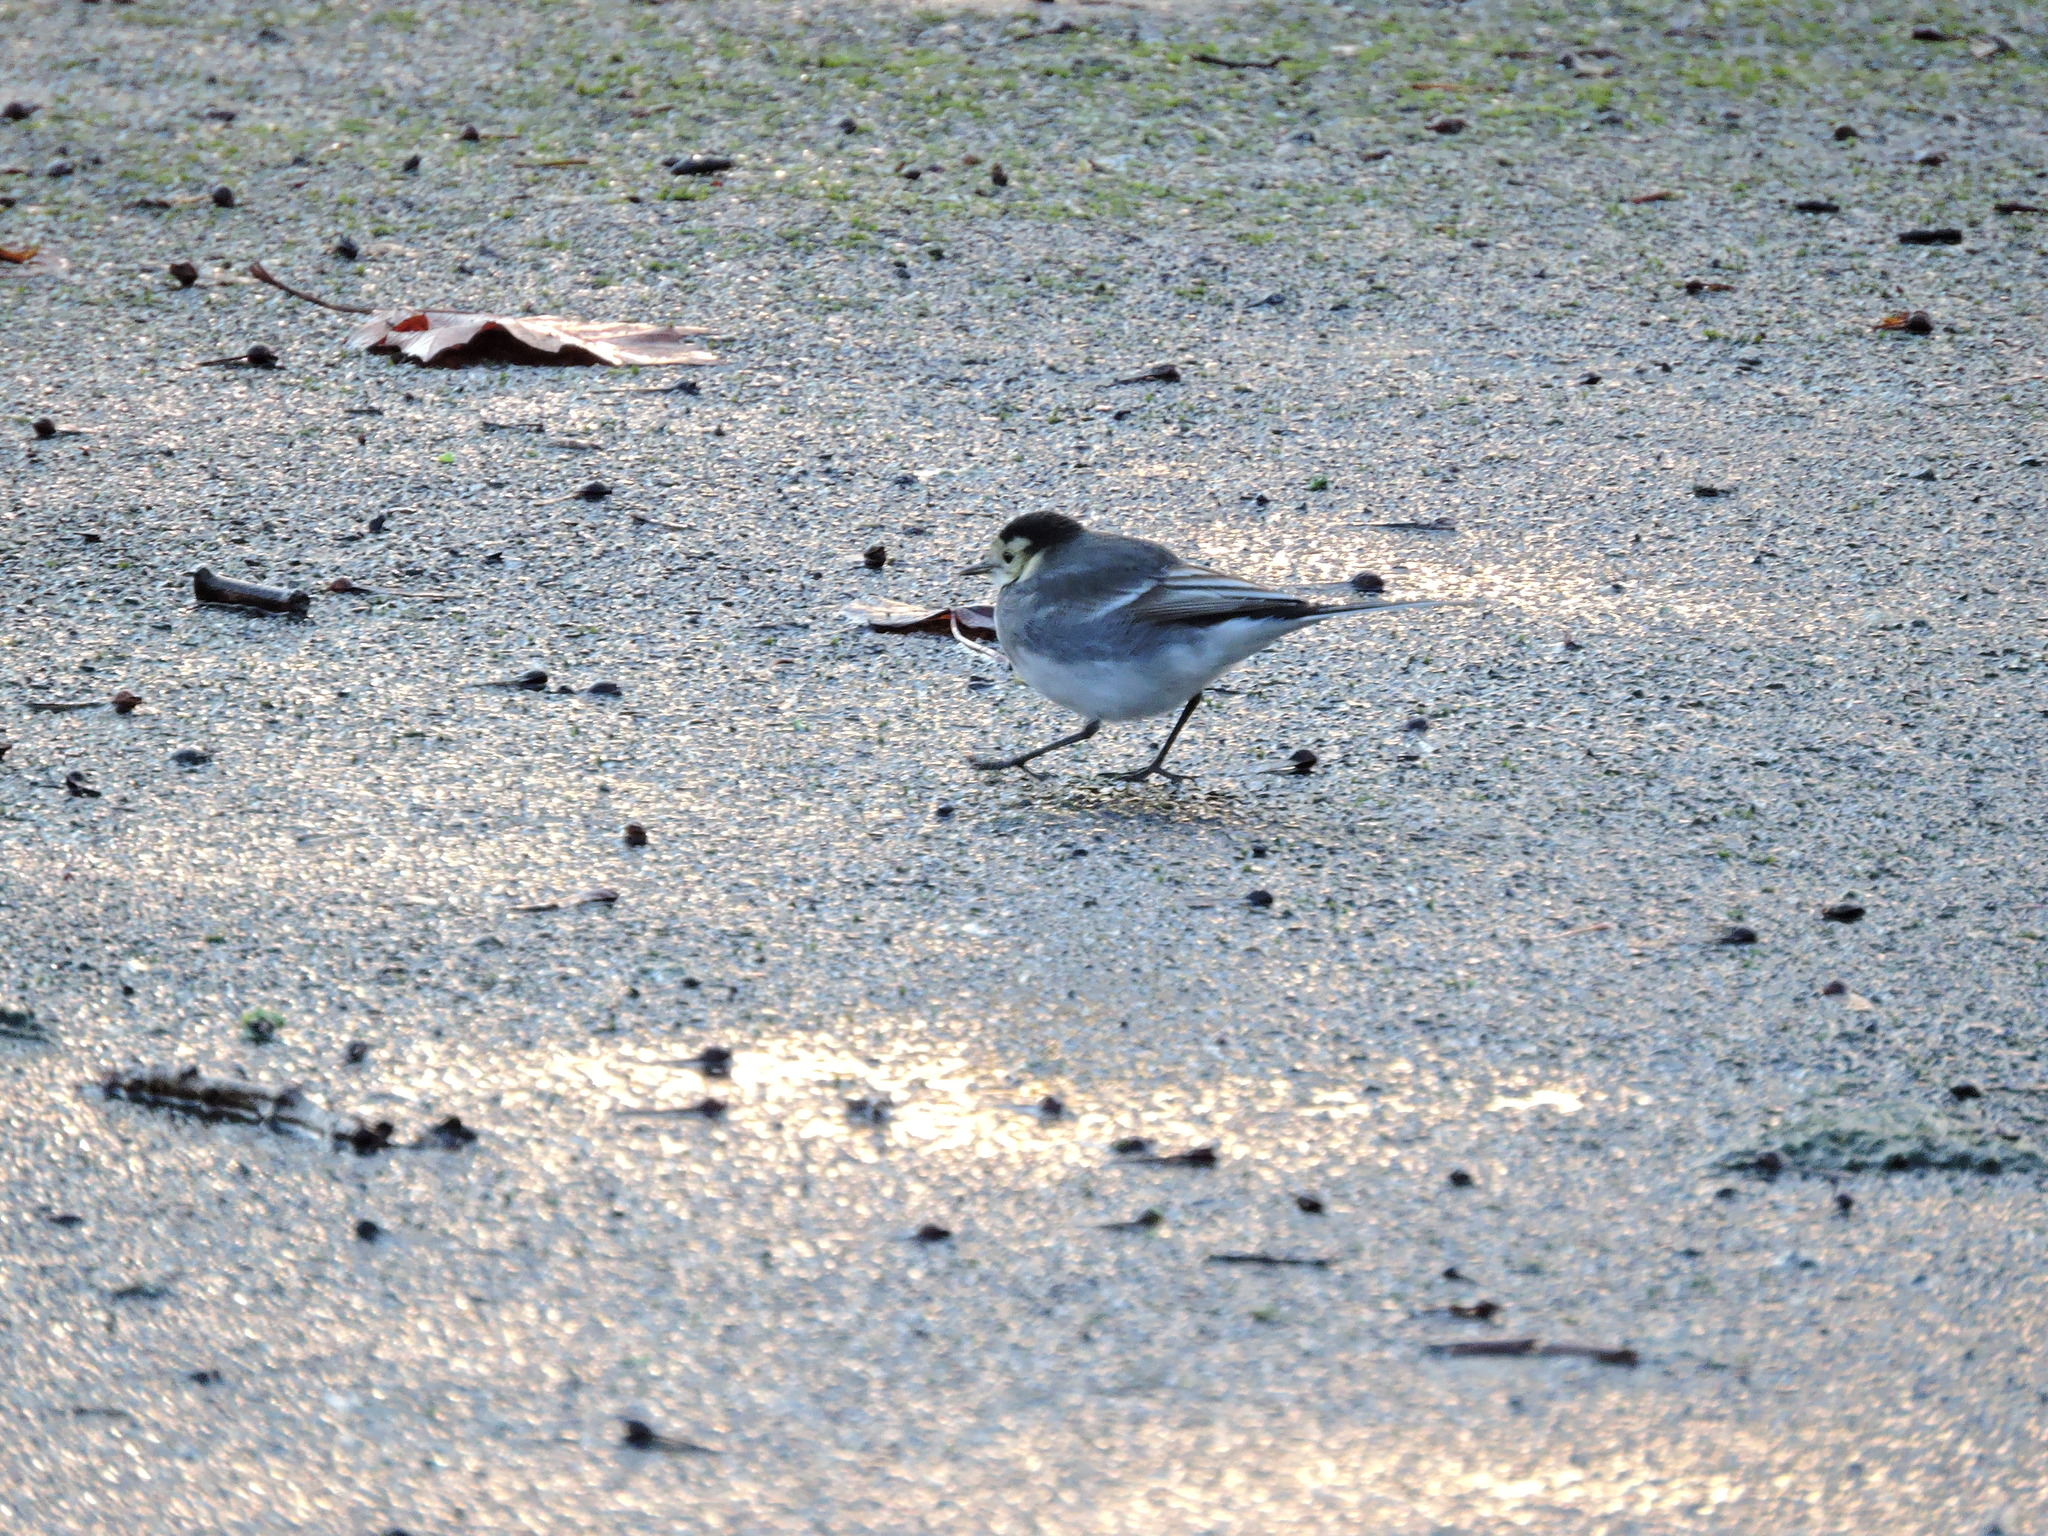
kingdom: Animalia
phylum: Chordata
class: Aves
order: Passeriformes
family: Motacillidae
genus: Motacilla
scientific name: Motacilla alba
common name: White wagtail
